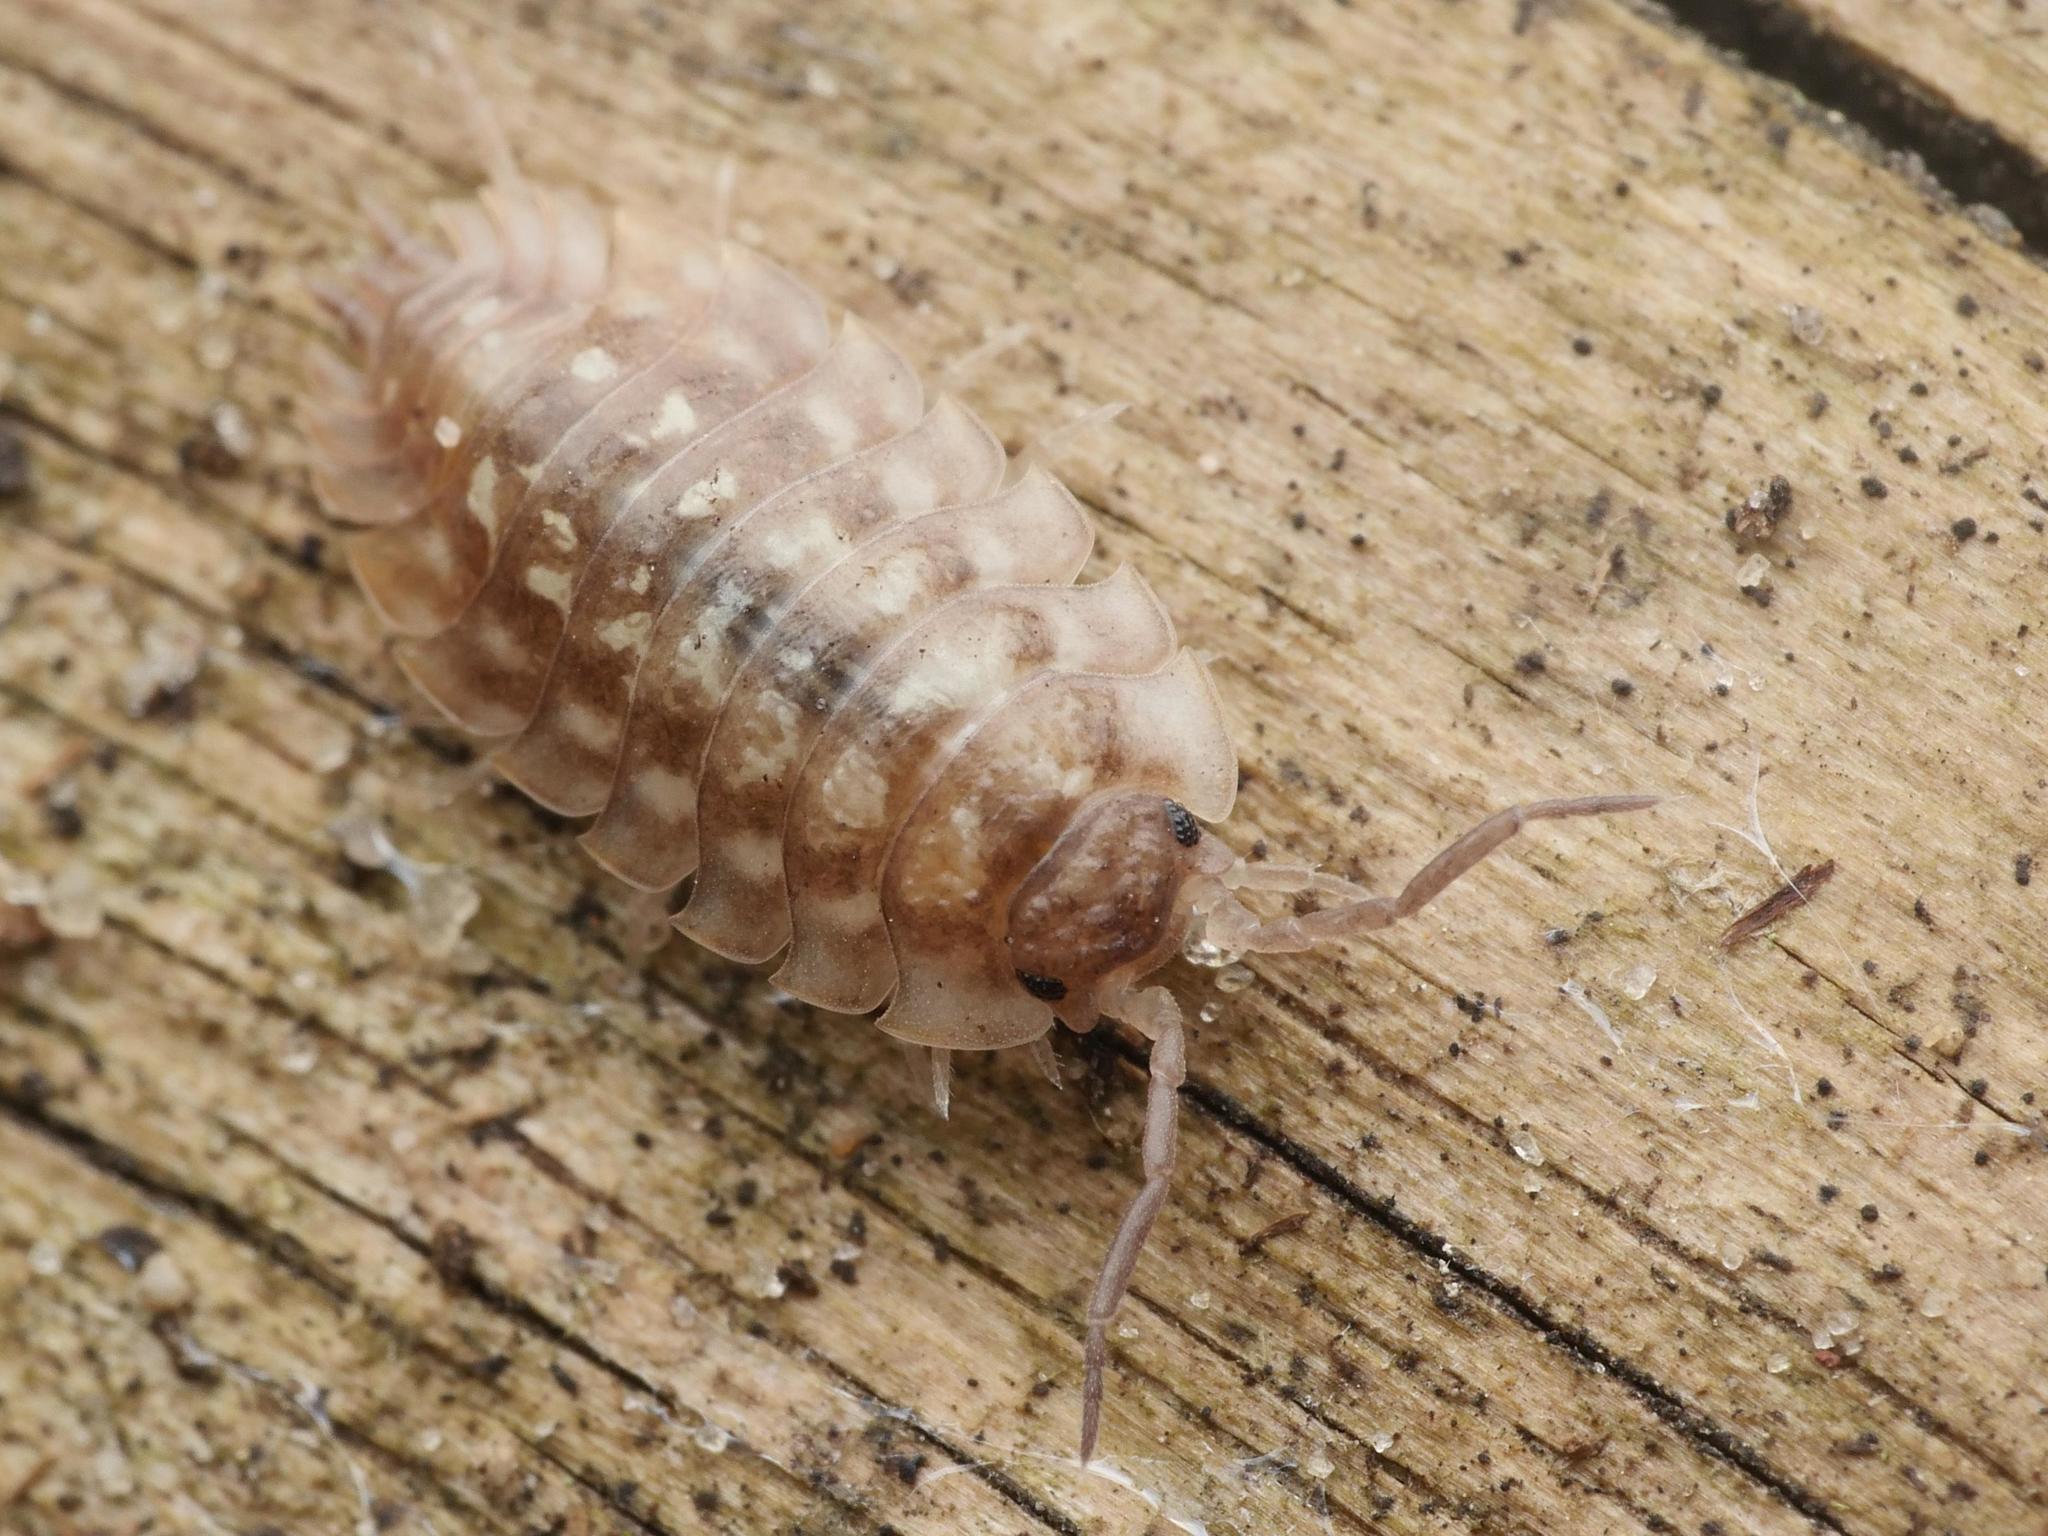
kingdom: Animalia
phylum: Arthropoda
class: Malacostraca
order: Isopoda
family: Oniscidae
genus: Oniscus
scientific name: Oniscus asellus
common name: Common shiny woodlouse
